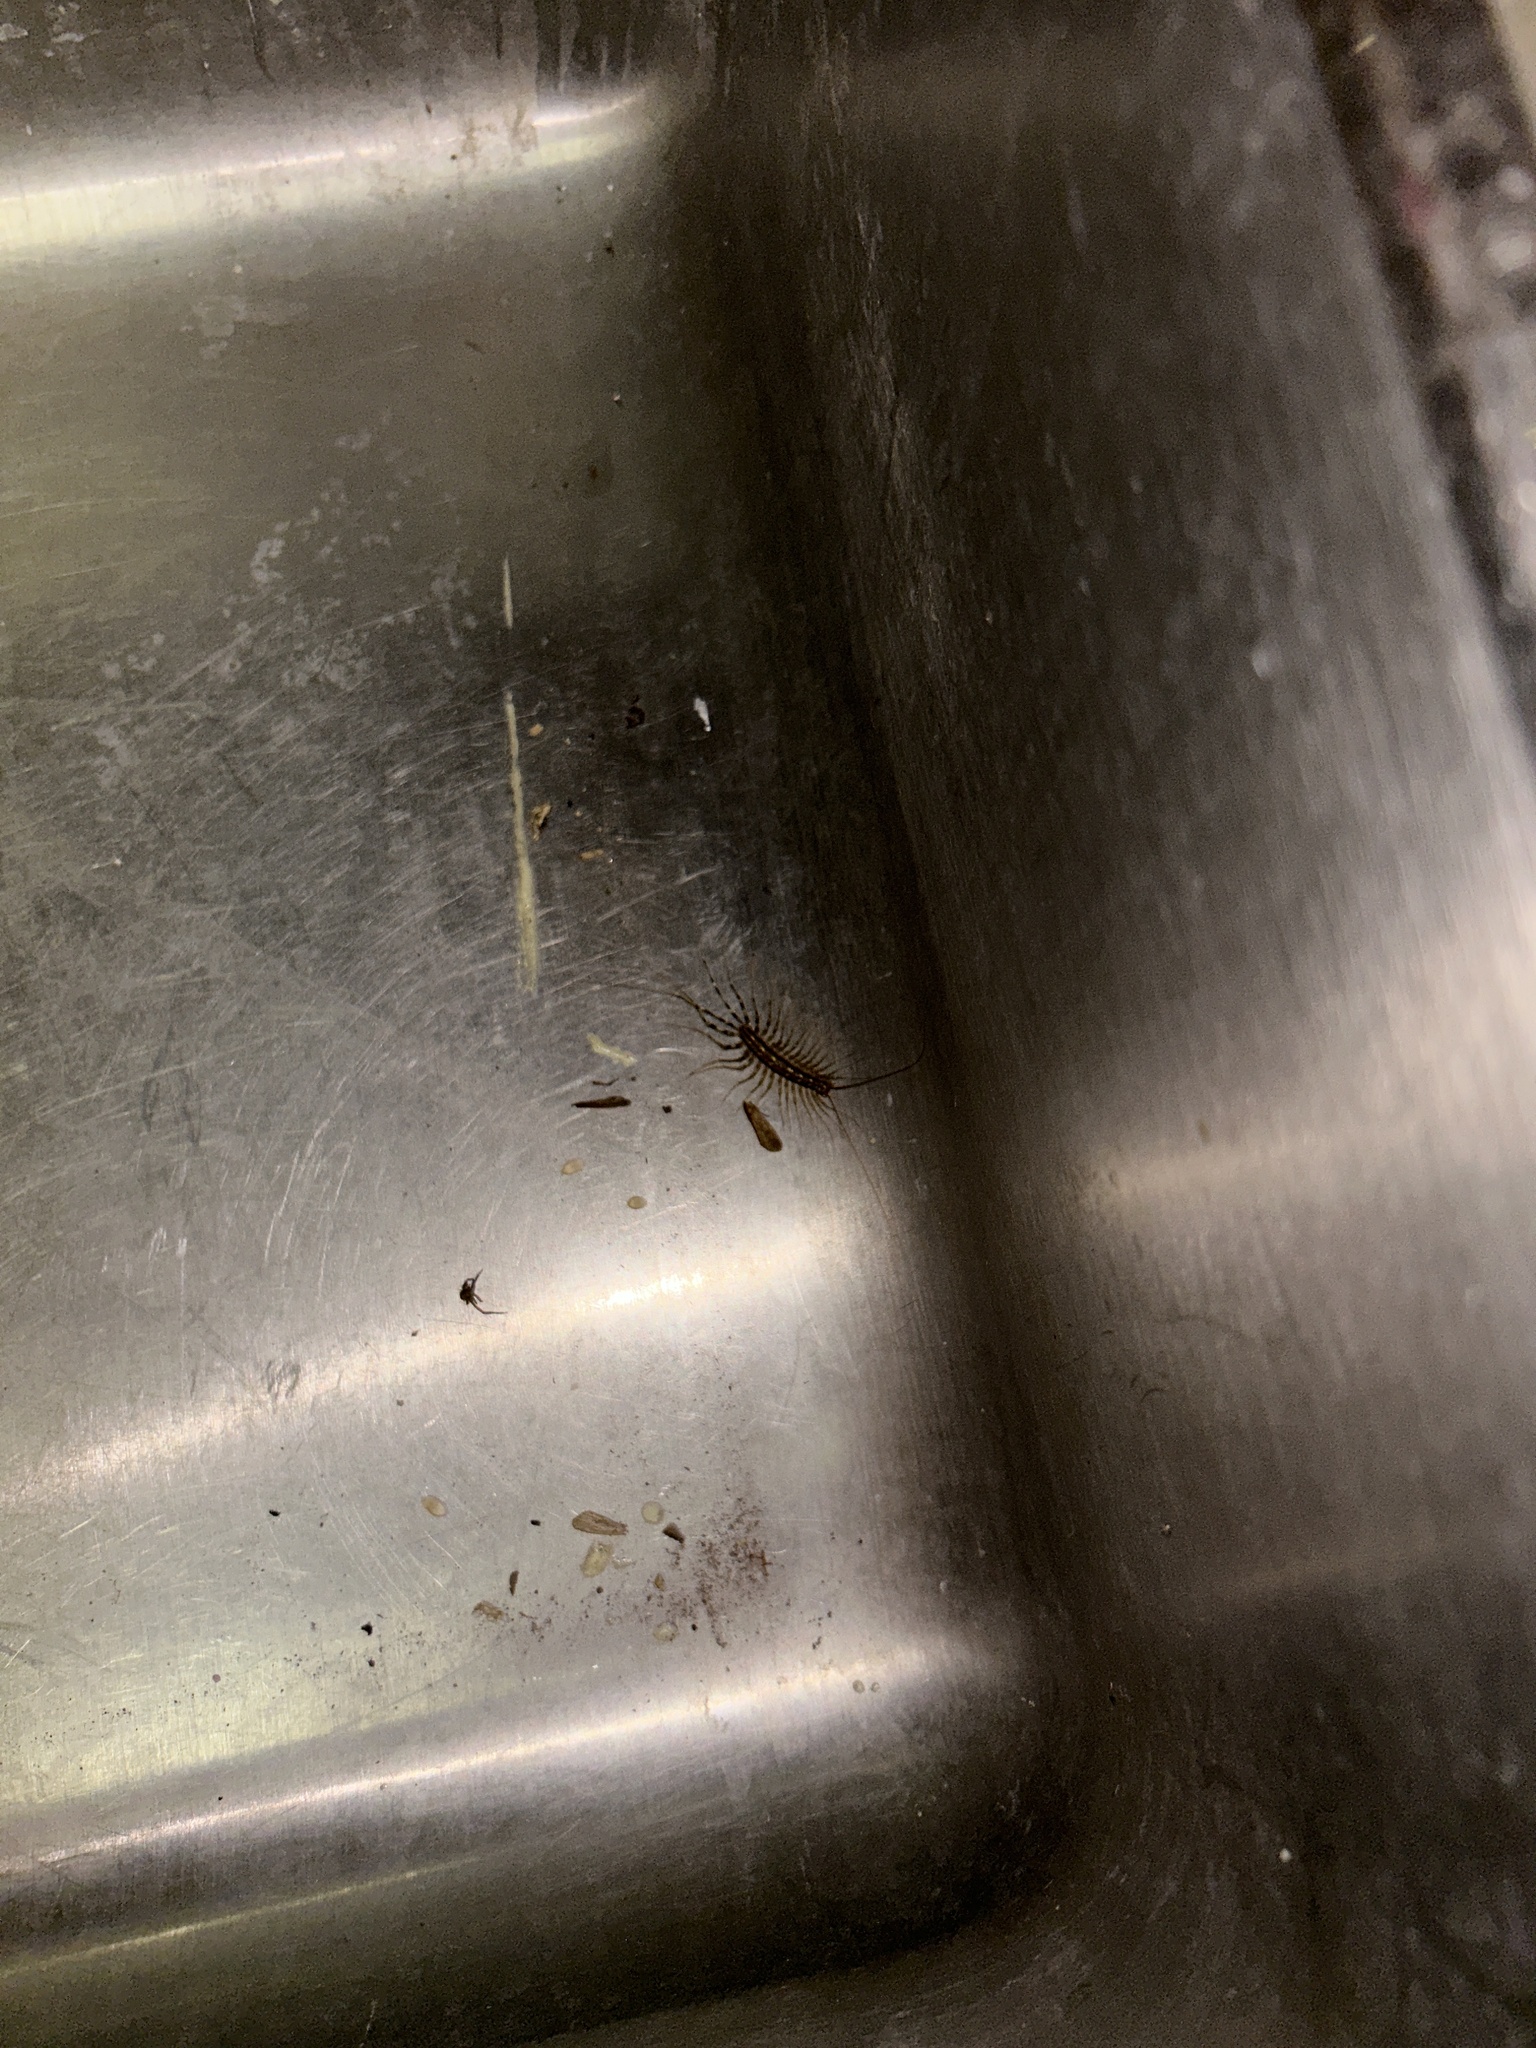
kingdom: Animalia
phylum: Arthropoda
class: Chilopoda
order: Scutigeromorpha
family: Scutigeridae
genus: Scutigera
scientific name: Scutigera coleoptrata
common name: House centipede
